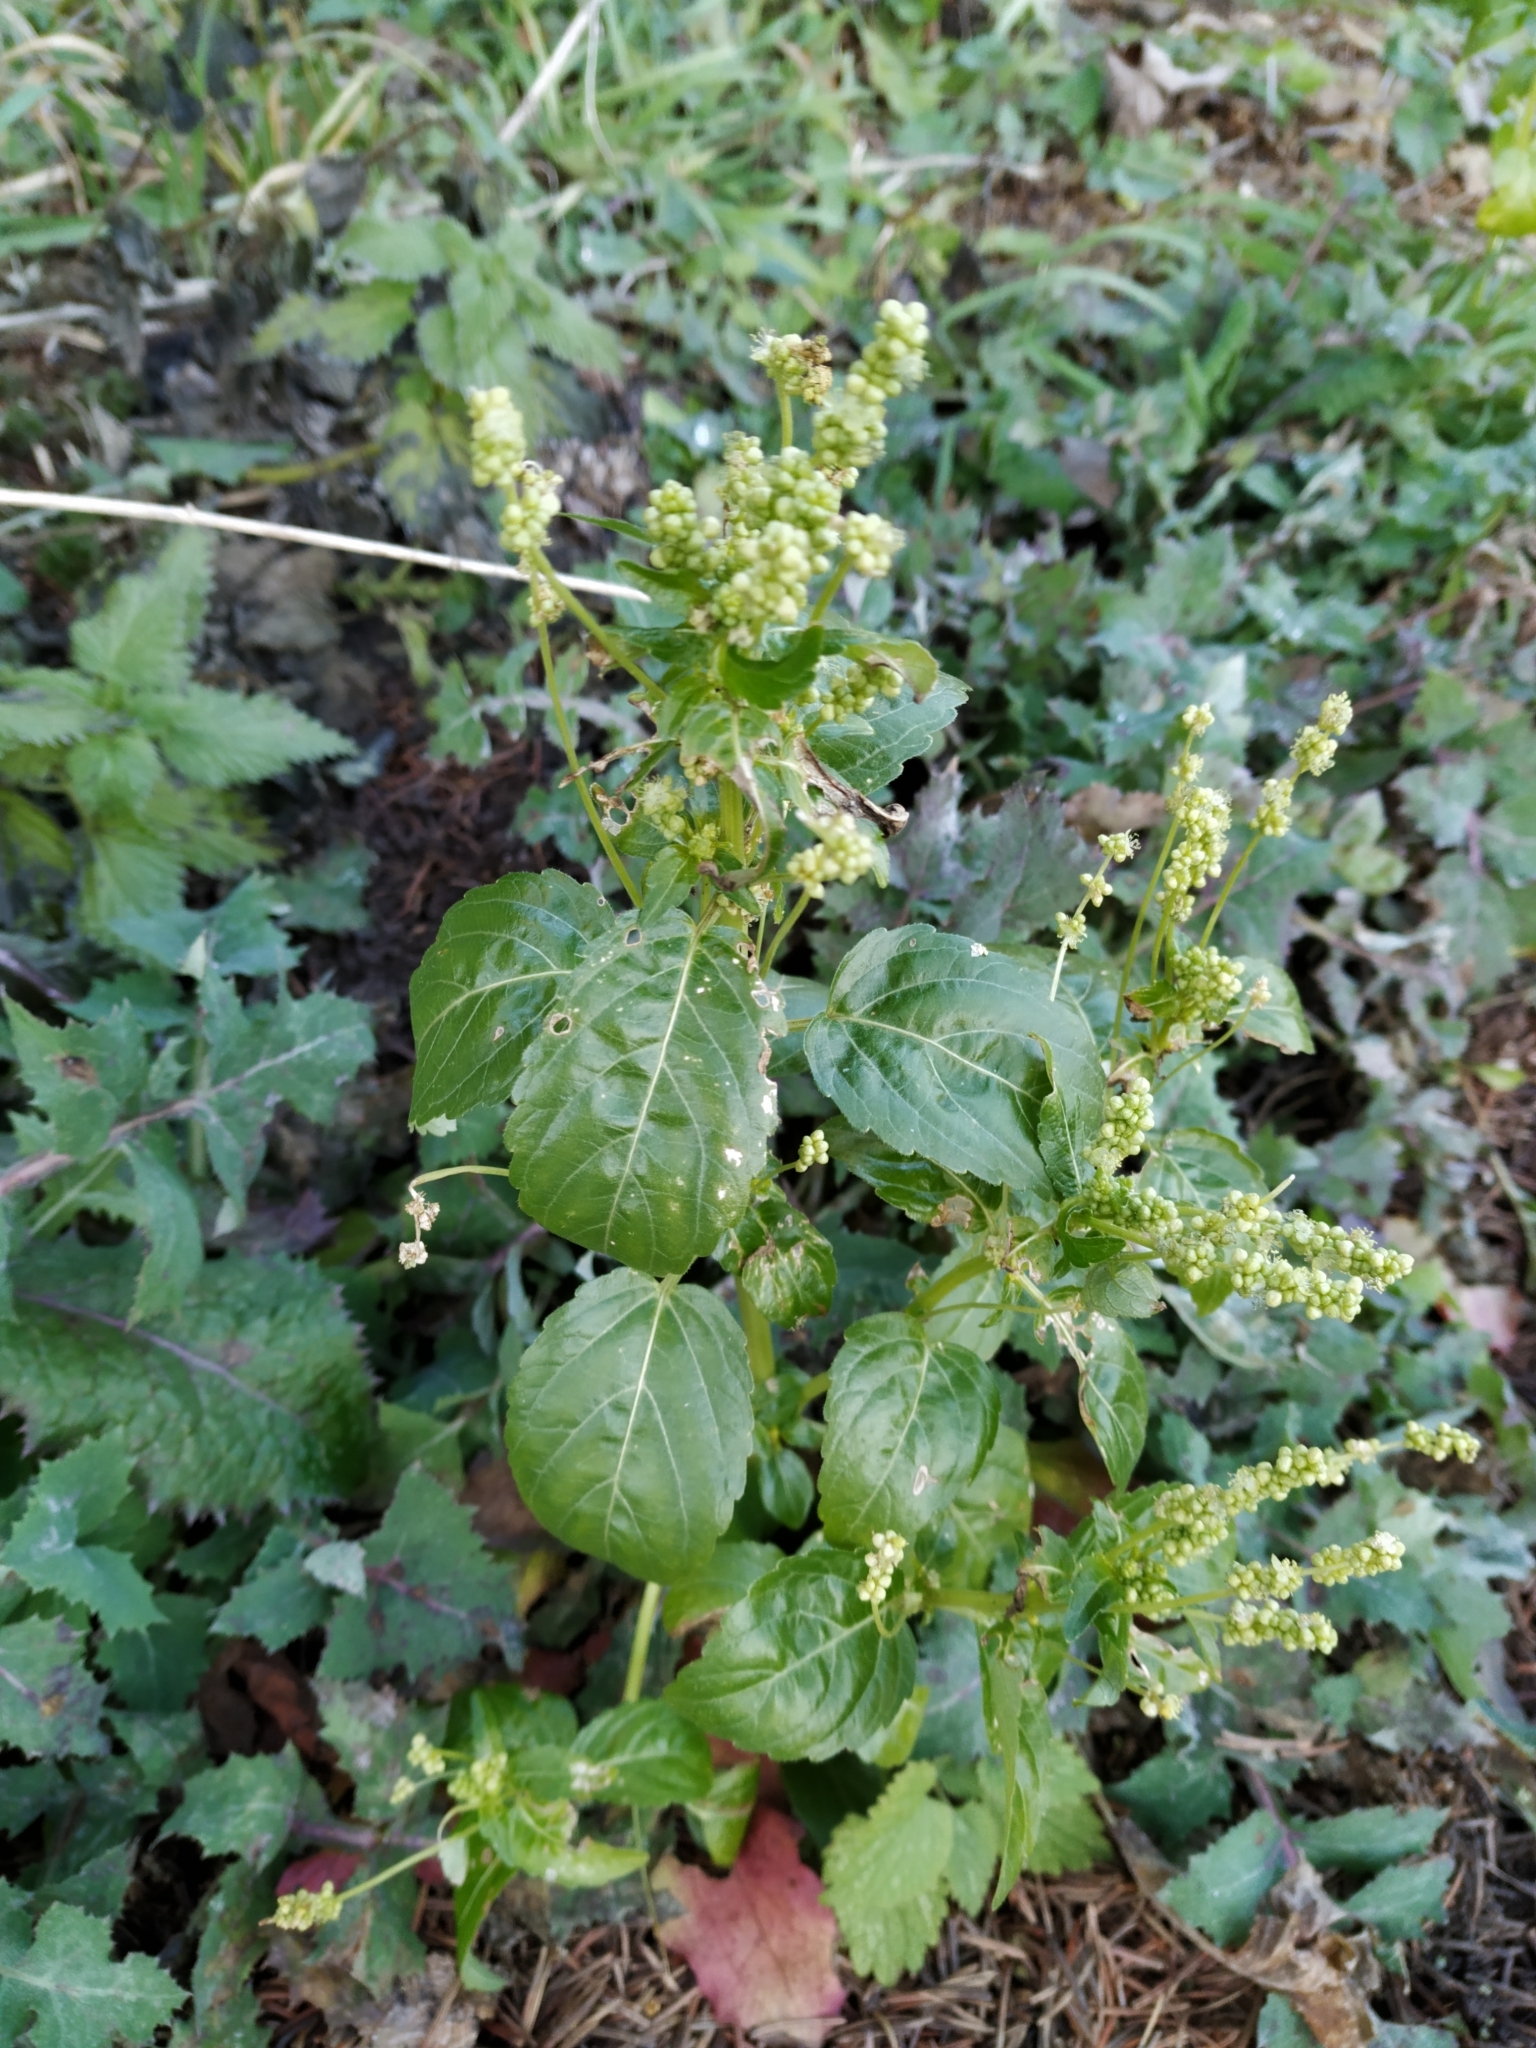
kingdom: Plantae
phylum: Tracheophyta
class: Magnoliopsida
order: Malpighiales
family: Euphorbiaceae
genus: Mercurialis
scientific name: Mercurialis annua
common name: Annual mercury
